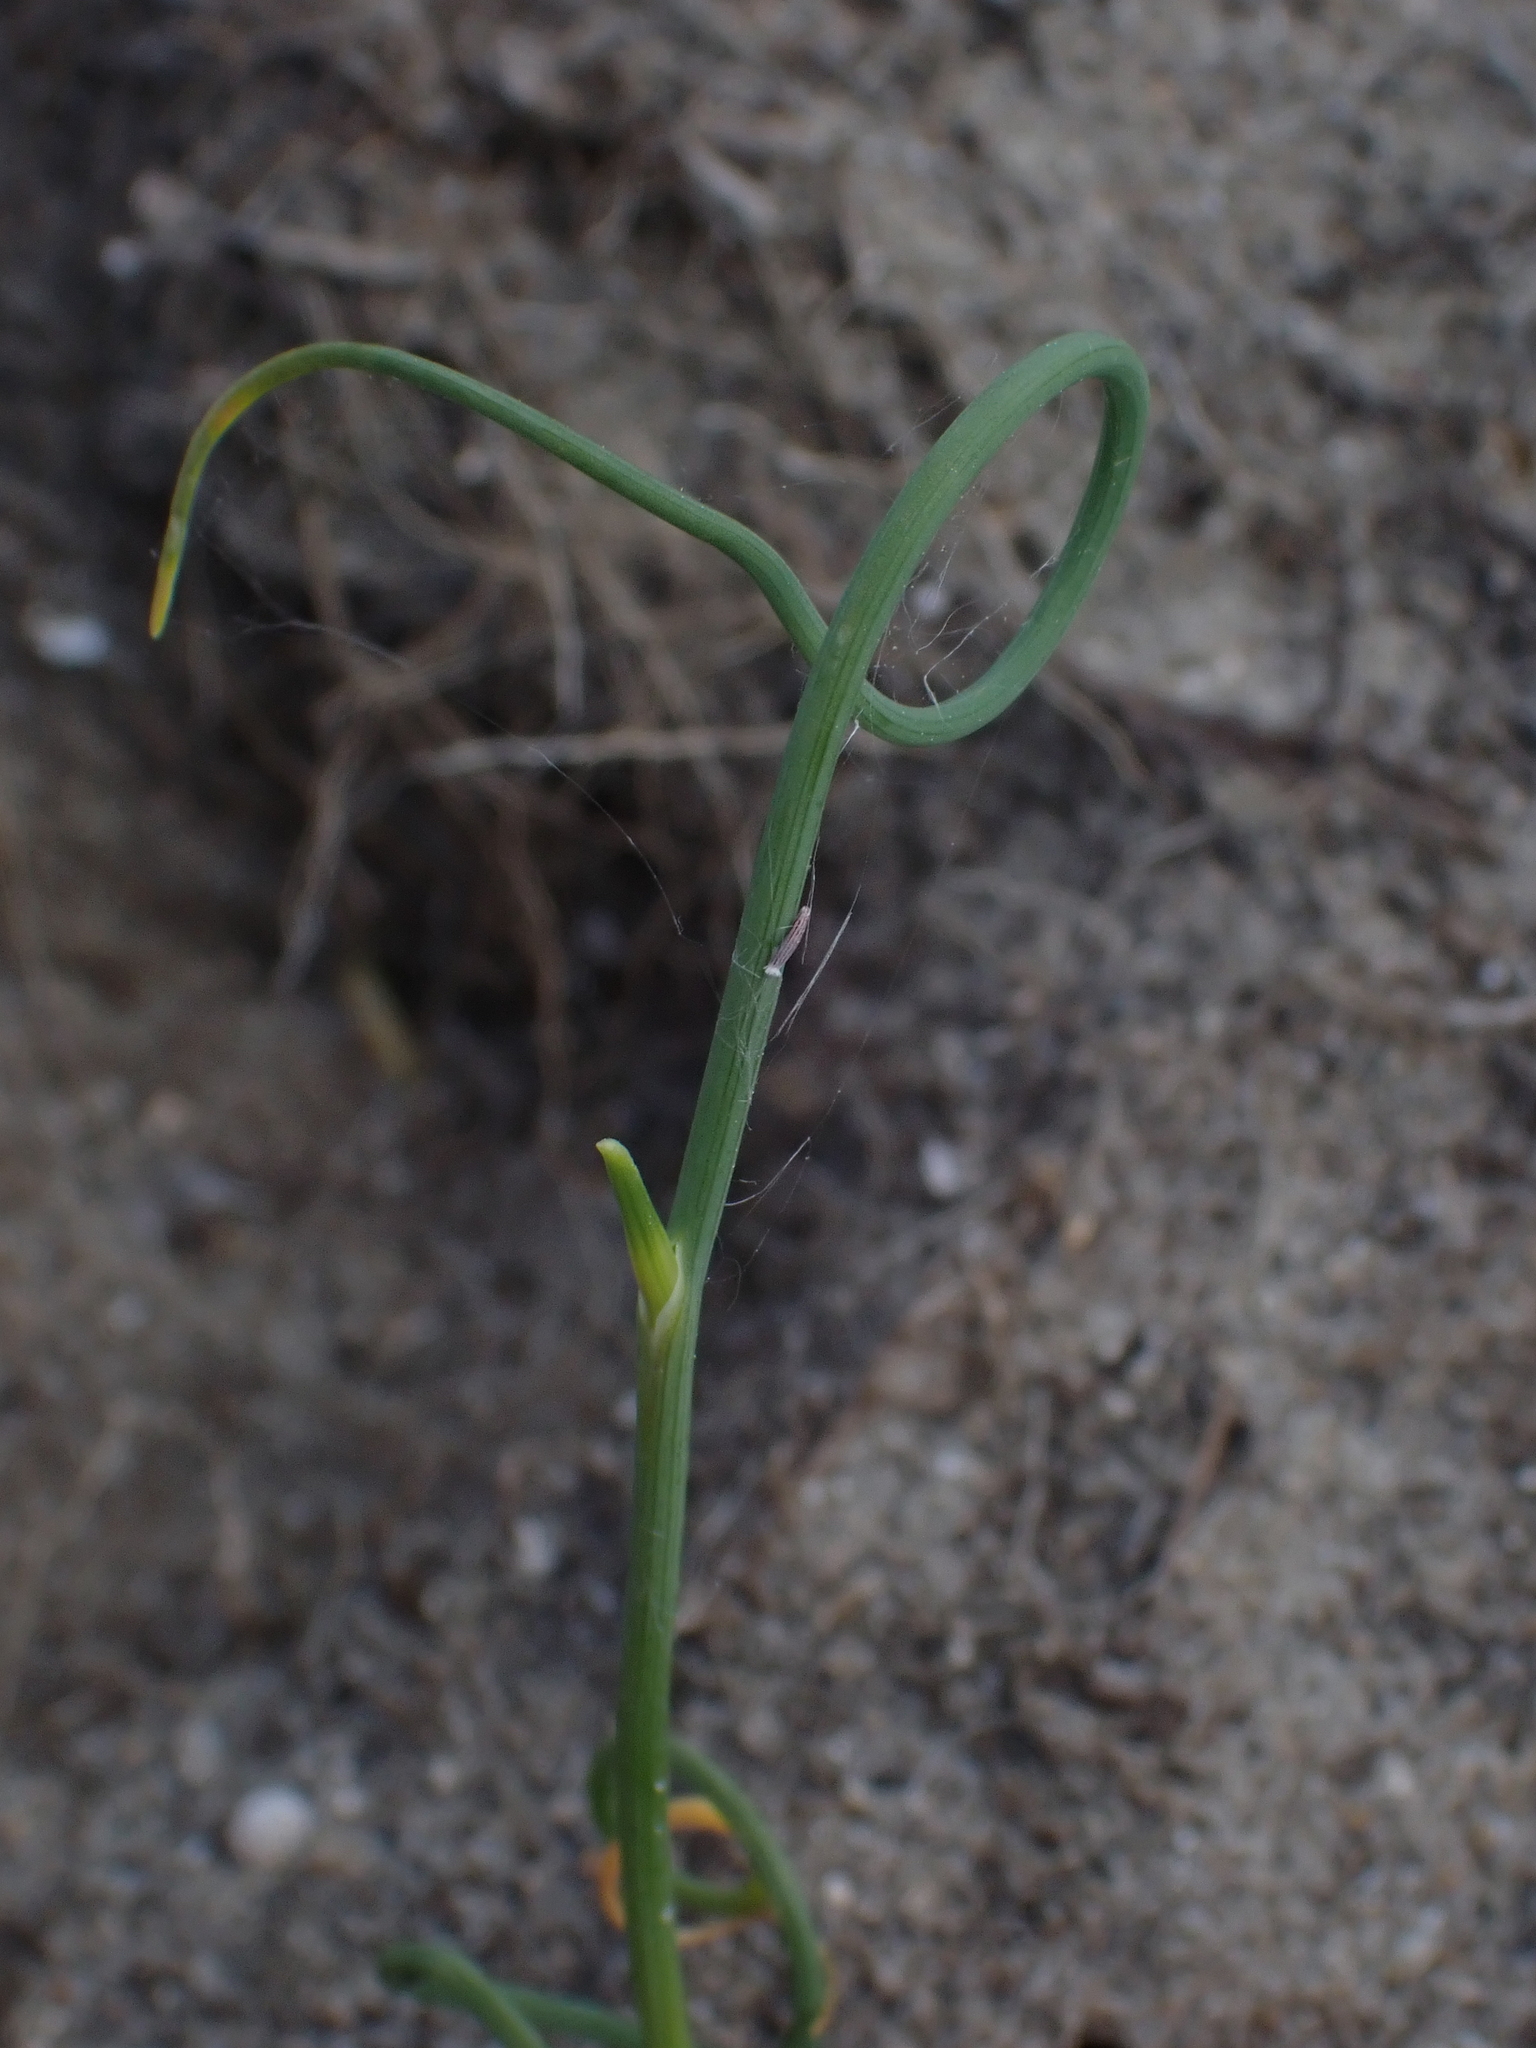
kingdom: Plantae
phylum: Tracheophyta
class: Liliopsida
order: Asparagales
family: Amaryllidaceae
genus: Allium
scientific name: Allium vineale
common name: Crow garlic
